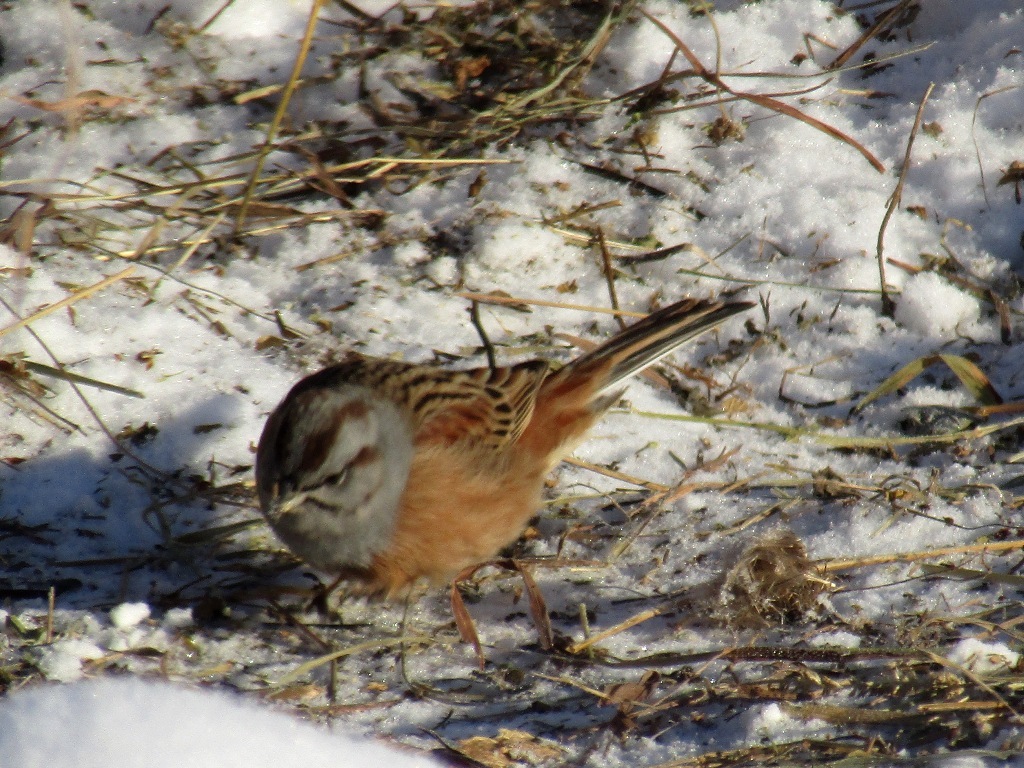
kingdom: Animalia
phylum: Chordata
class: Aves
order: Passeriformes
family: Emberizidae
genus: Emberiza
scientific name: Emberiza godlewskii
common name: Godlewski's bunting
